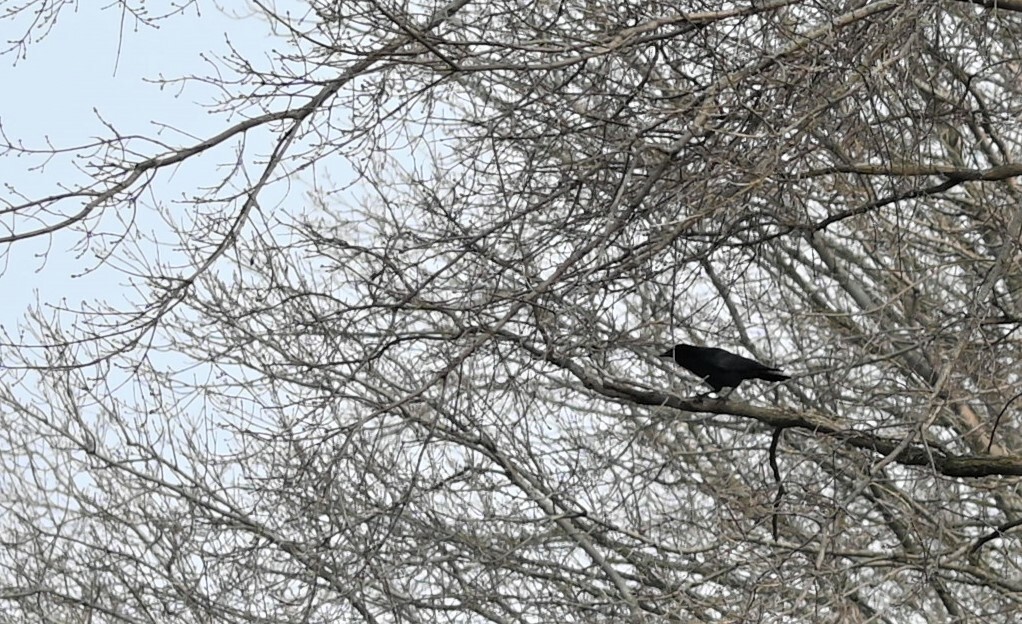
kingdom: Animalia
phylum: Chordata
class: Aves
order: Passeriformes
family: Corvidae
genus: Corvus
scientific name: Corvus brachyrhynchos
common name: American crow
